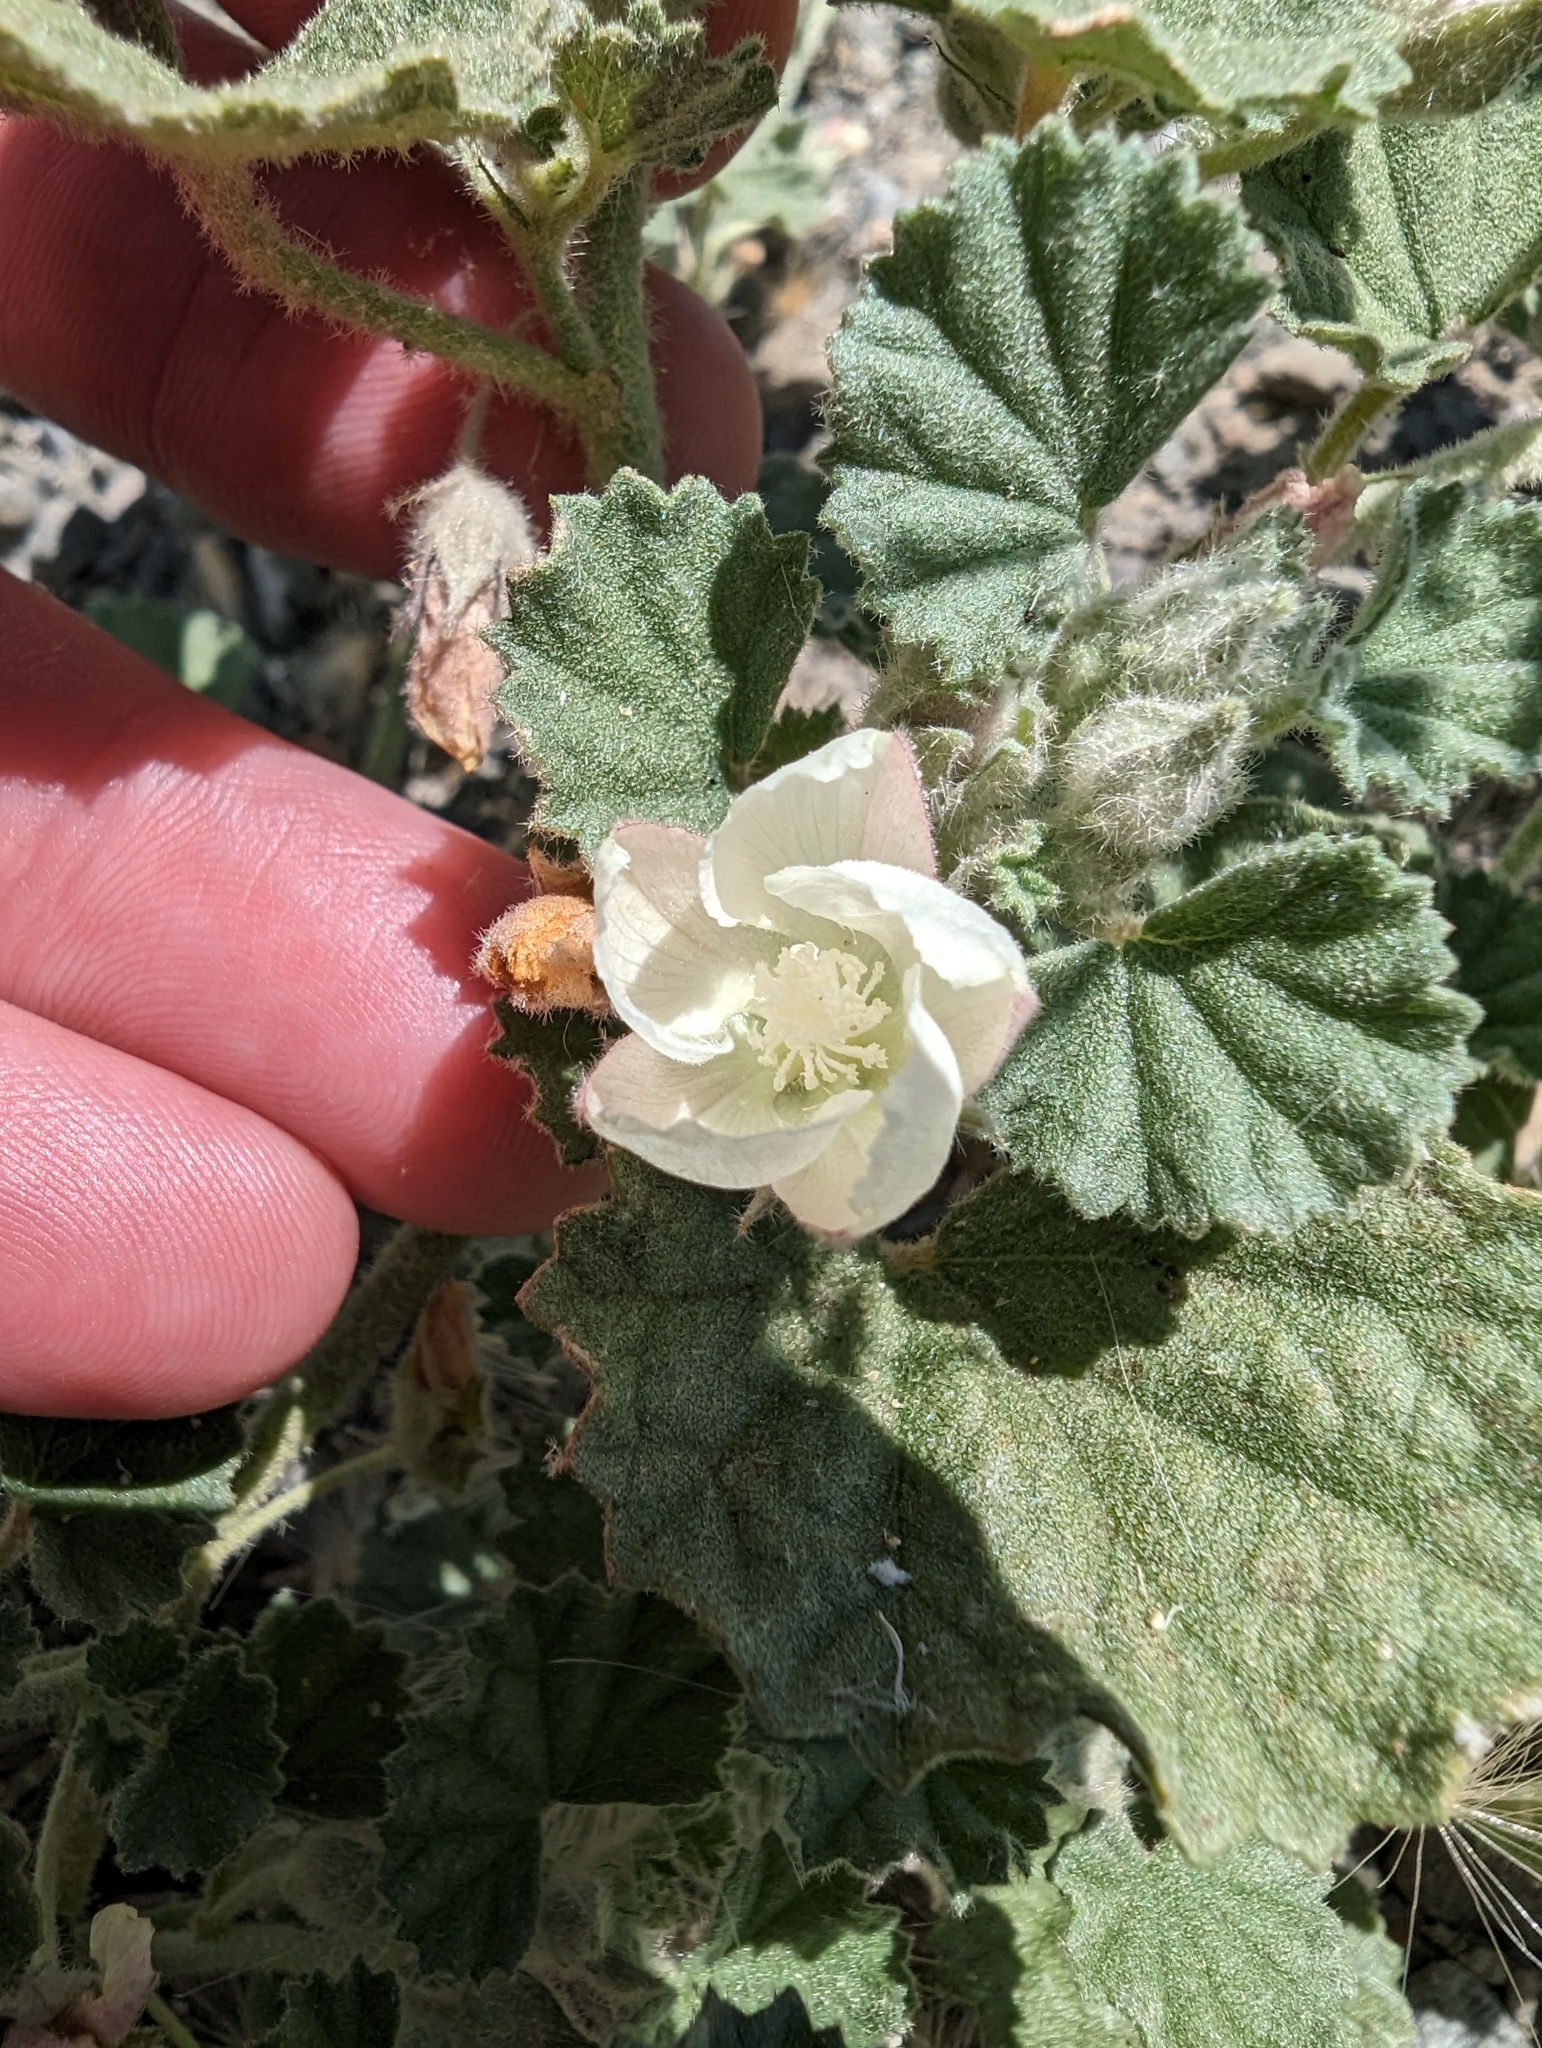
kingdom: Plantae
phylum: Tracheophyta
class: Magnoliopsida
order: Malvales
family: Malvaceae
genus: Malvella
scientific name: Malvella leprosa
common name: Alkali-mallow
